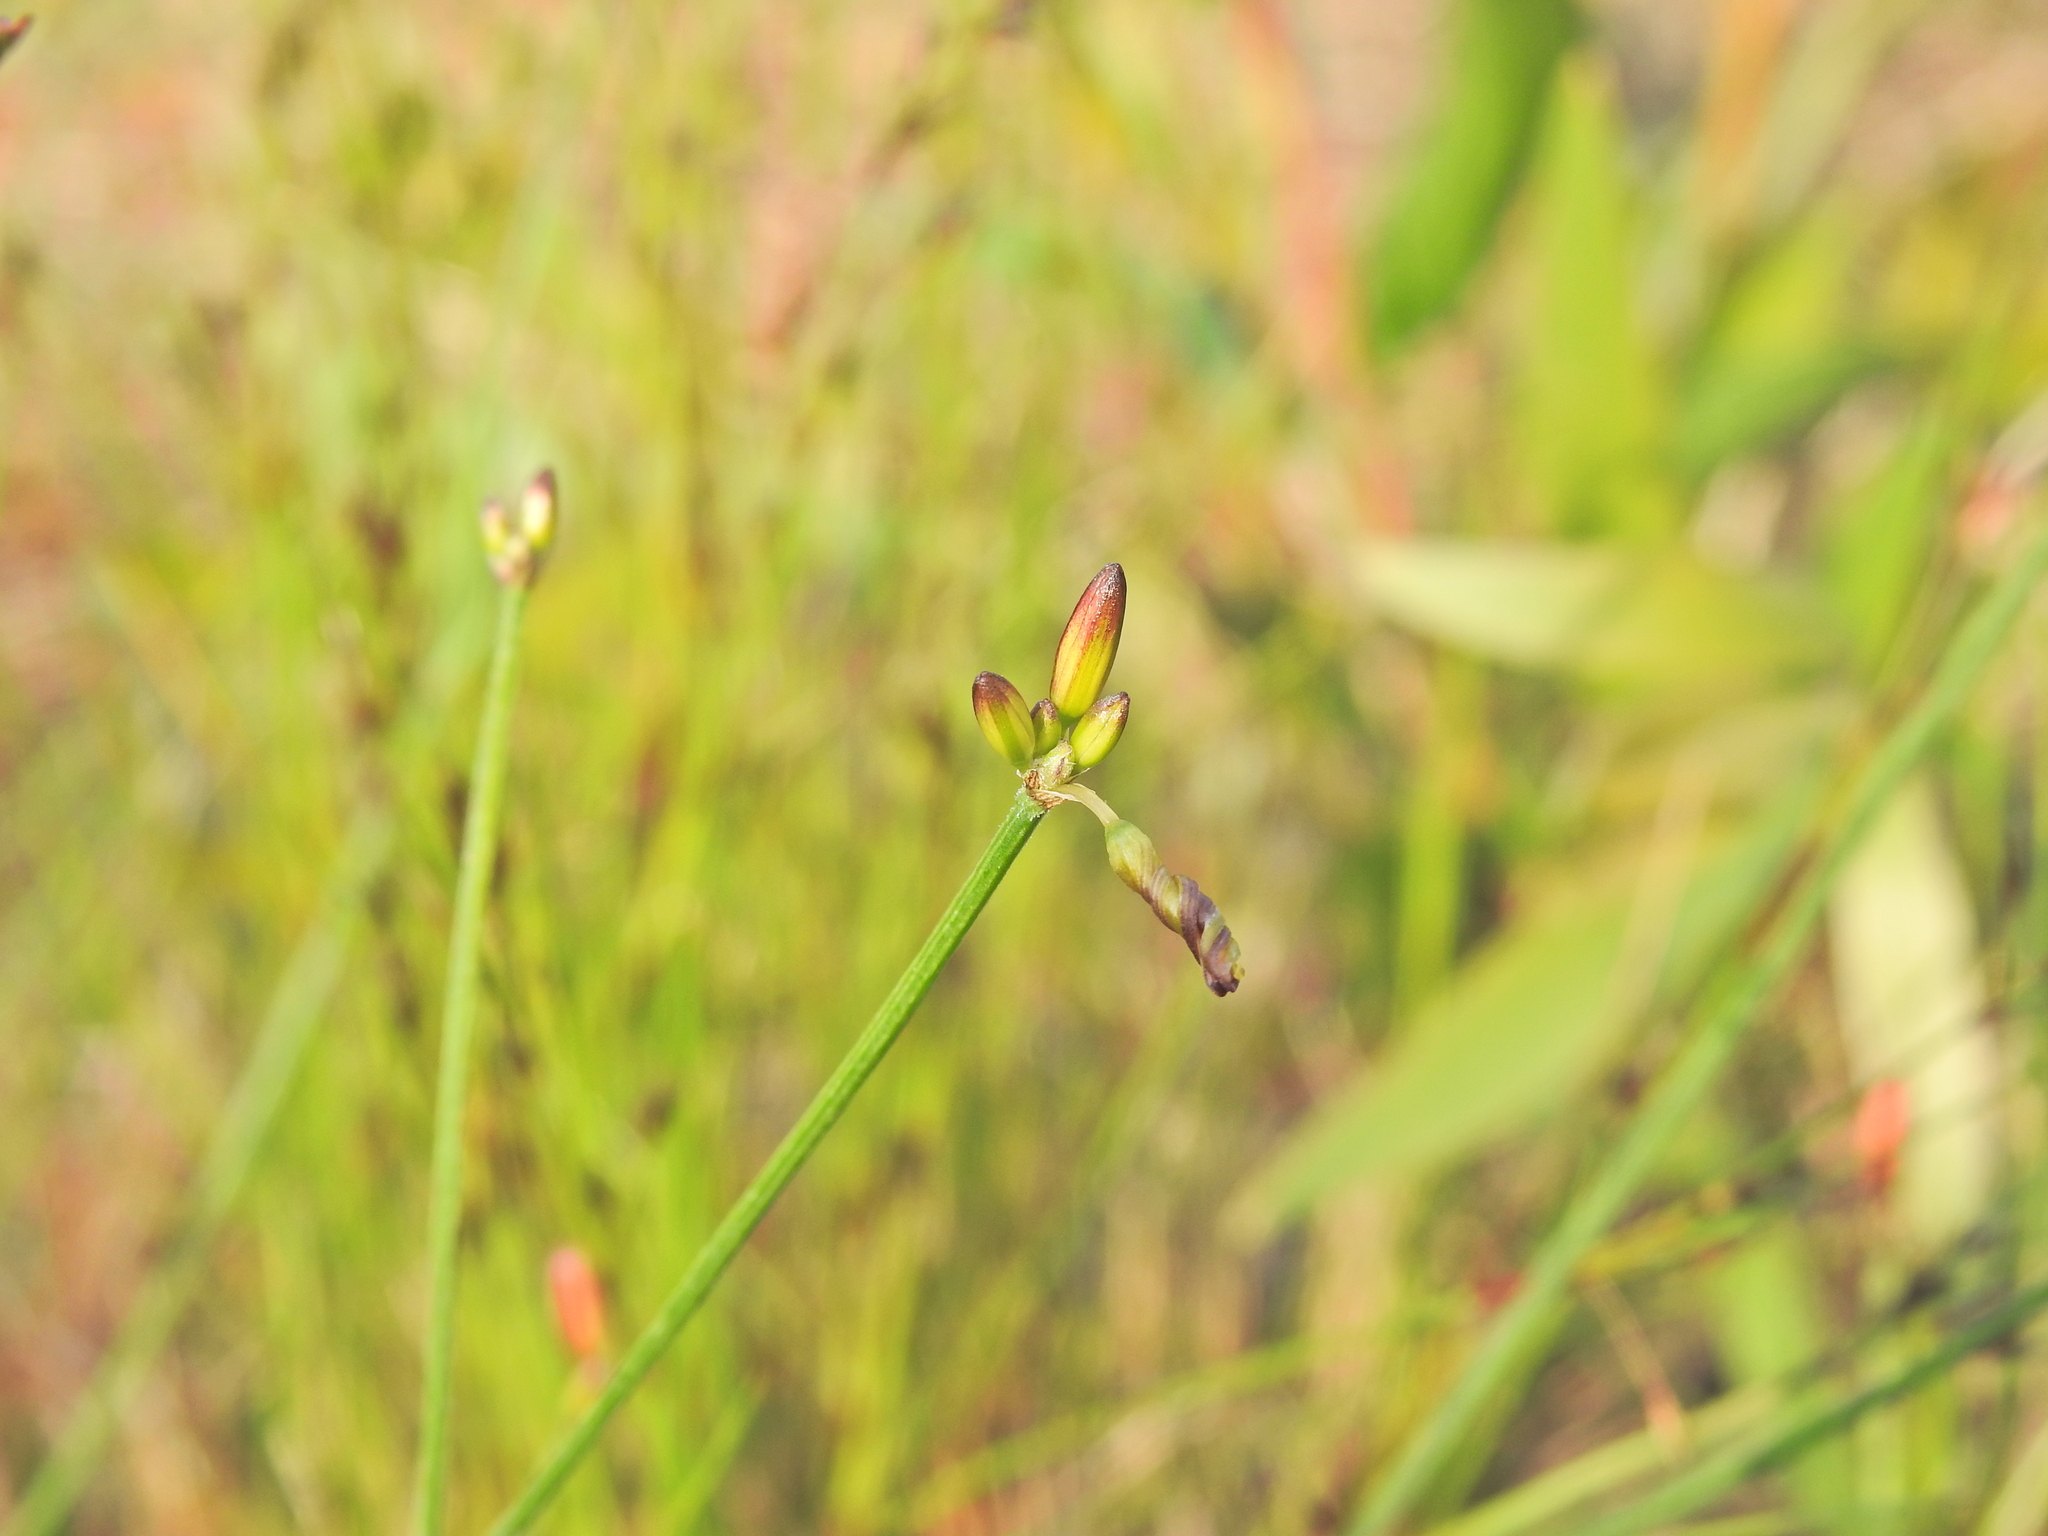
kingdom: Plantae
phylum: Tracheophyta
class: Liliopsida
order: Asparagales
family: Asphodelaceae
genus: Tricoryne
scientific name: Tricoryne muricata
